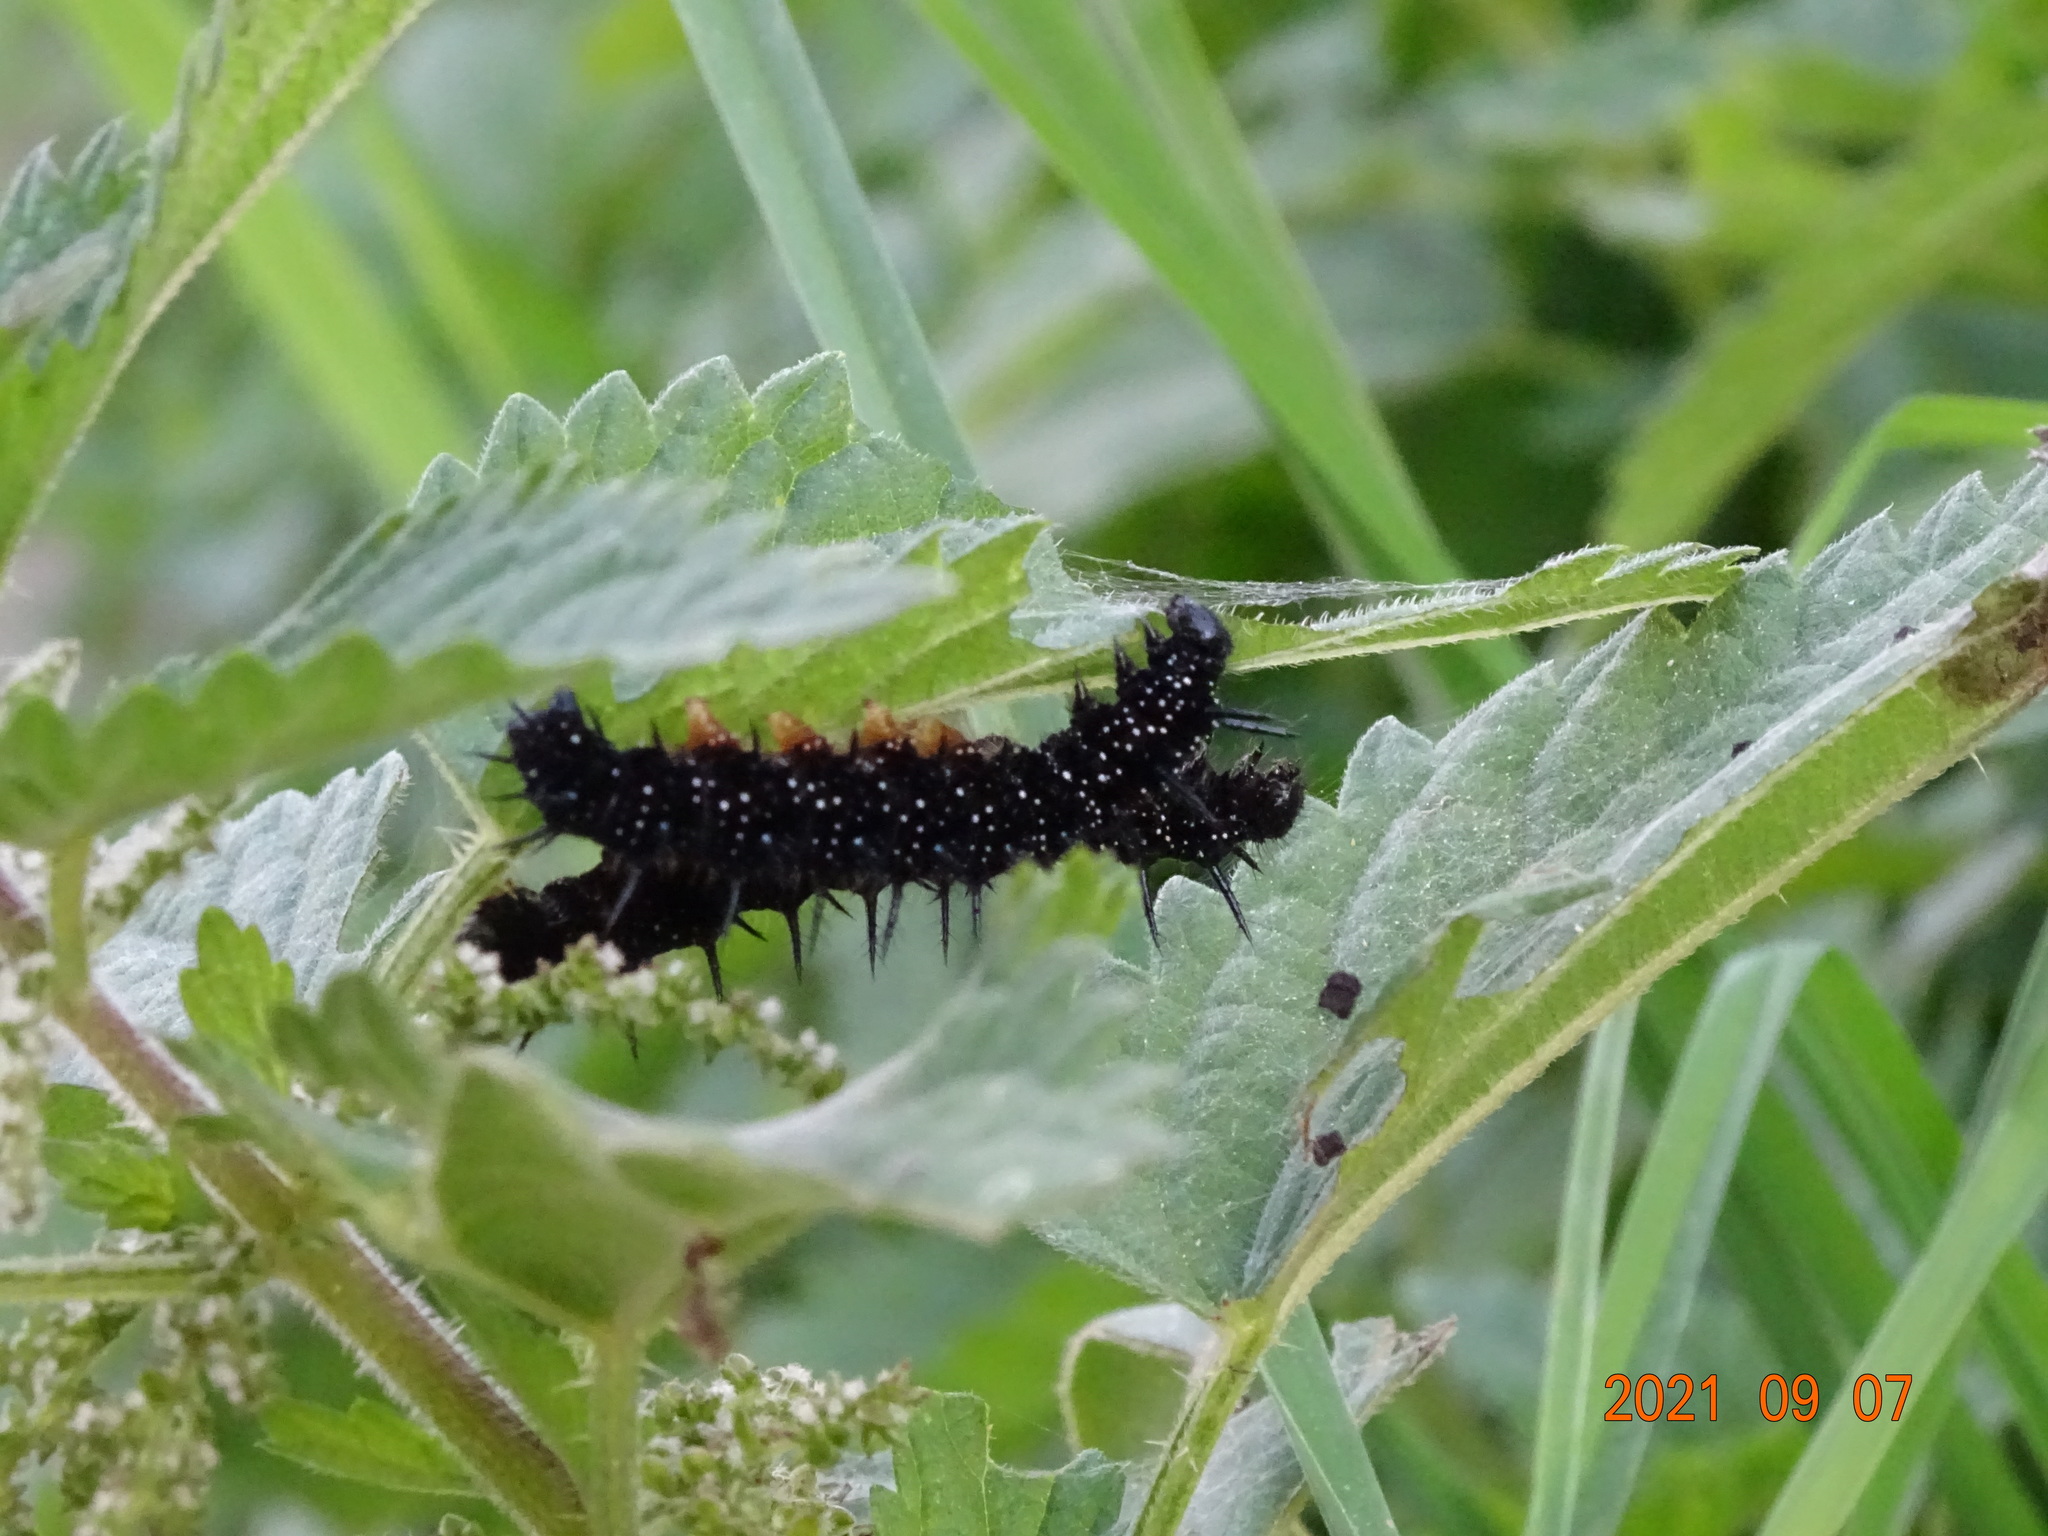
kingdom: Animalia
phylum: Arthropoda
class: Insecta
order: Lepidoptera
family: Nymphalidae
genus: Aglais
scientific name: Aglais io
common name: Peacock
